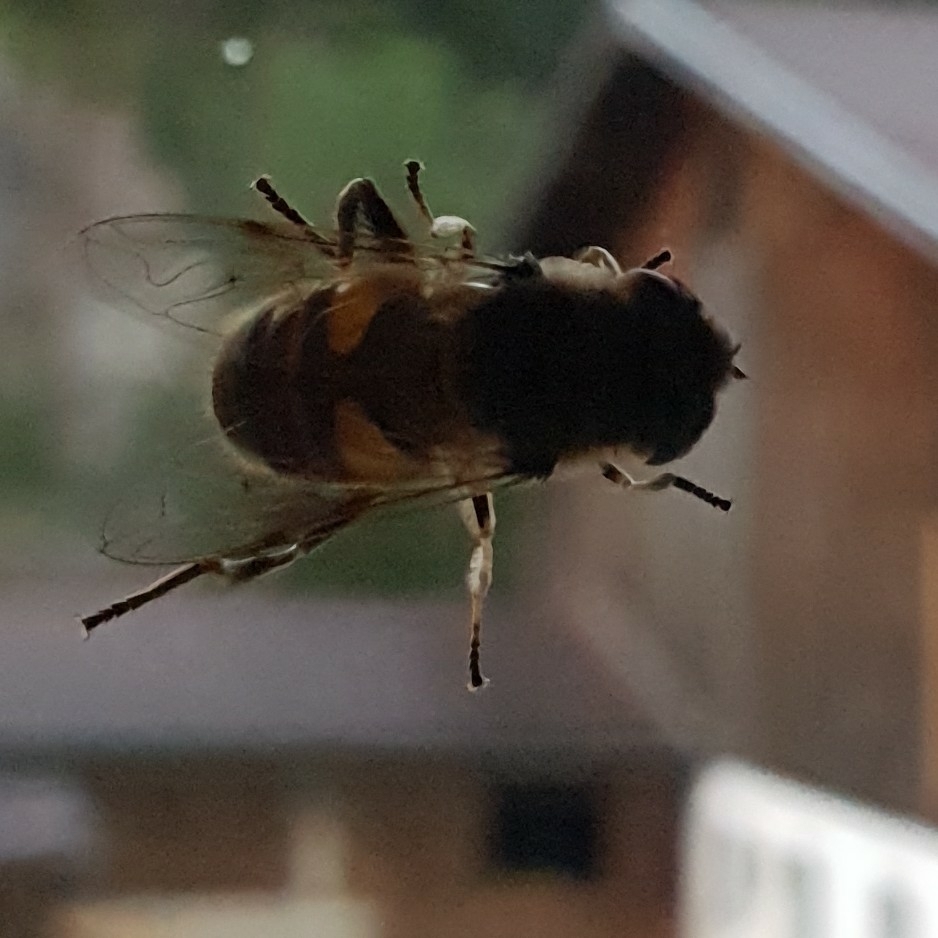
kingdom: Animalia
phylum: Arthropoda
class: Insecta
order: Diptera
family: Syrphidae
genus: Eristalis
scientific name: Eristalis tenax
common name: Drone fly
